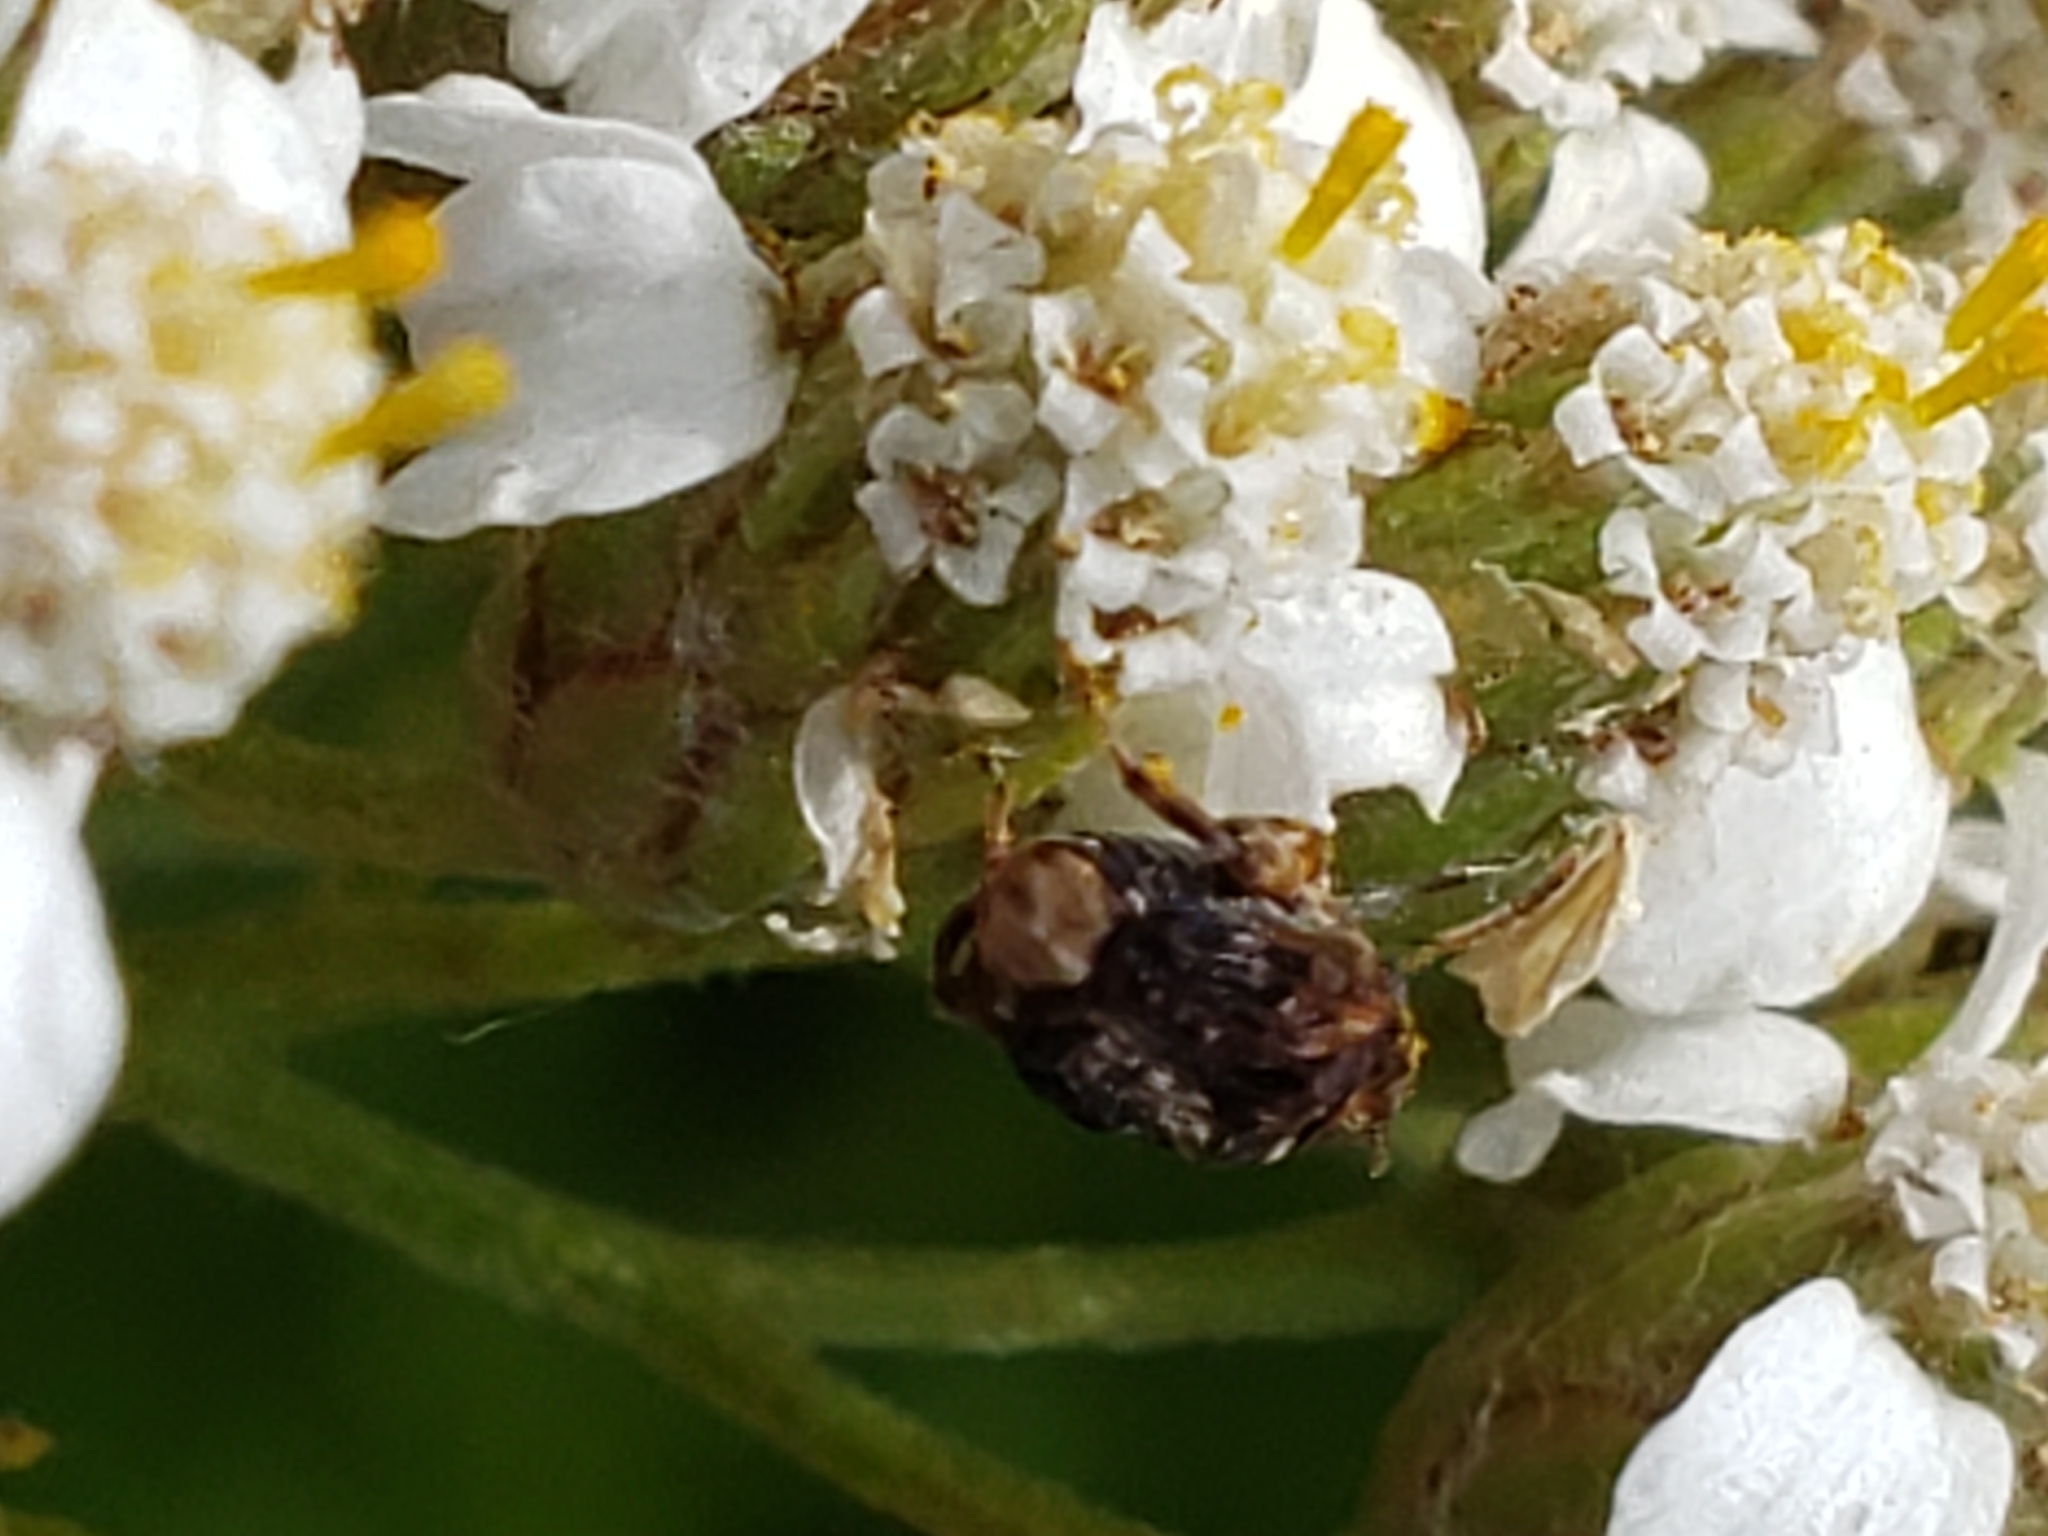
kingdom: Animalia
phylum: Arthropoda
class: Insecta
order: Coleoptera
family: Chrysomelidae
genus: Gibbobruchus
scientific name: Gibbobruchus mimus
